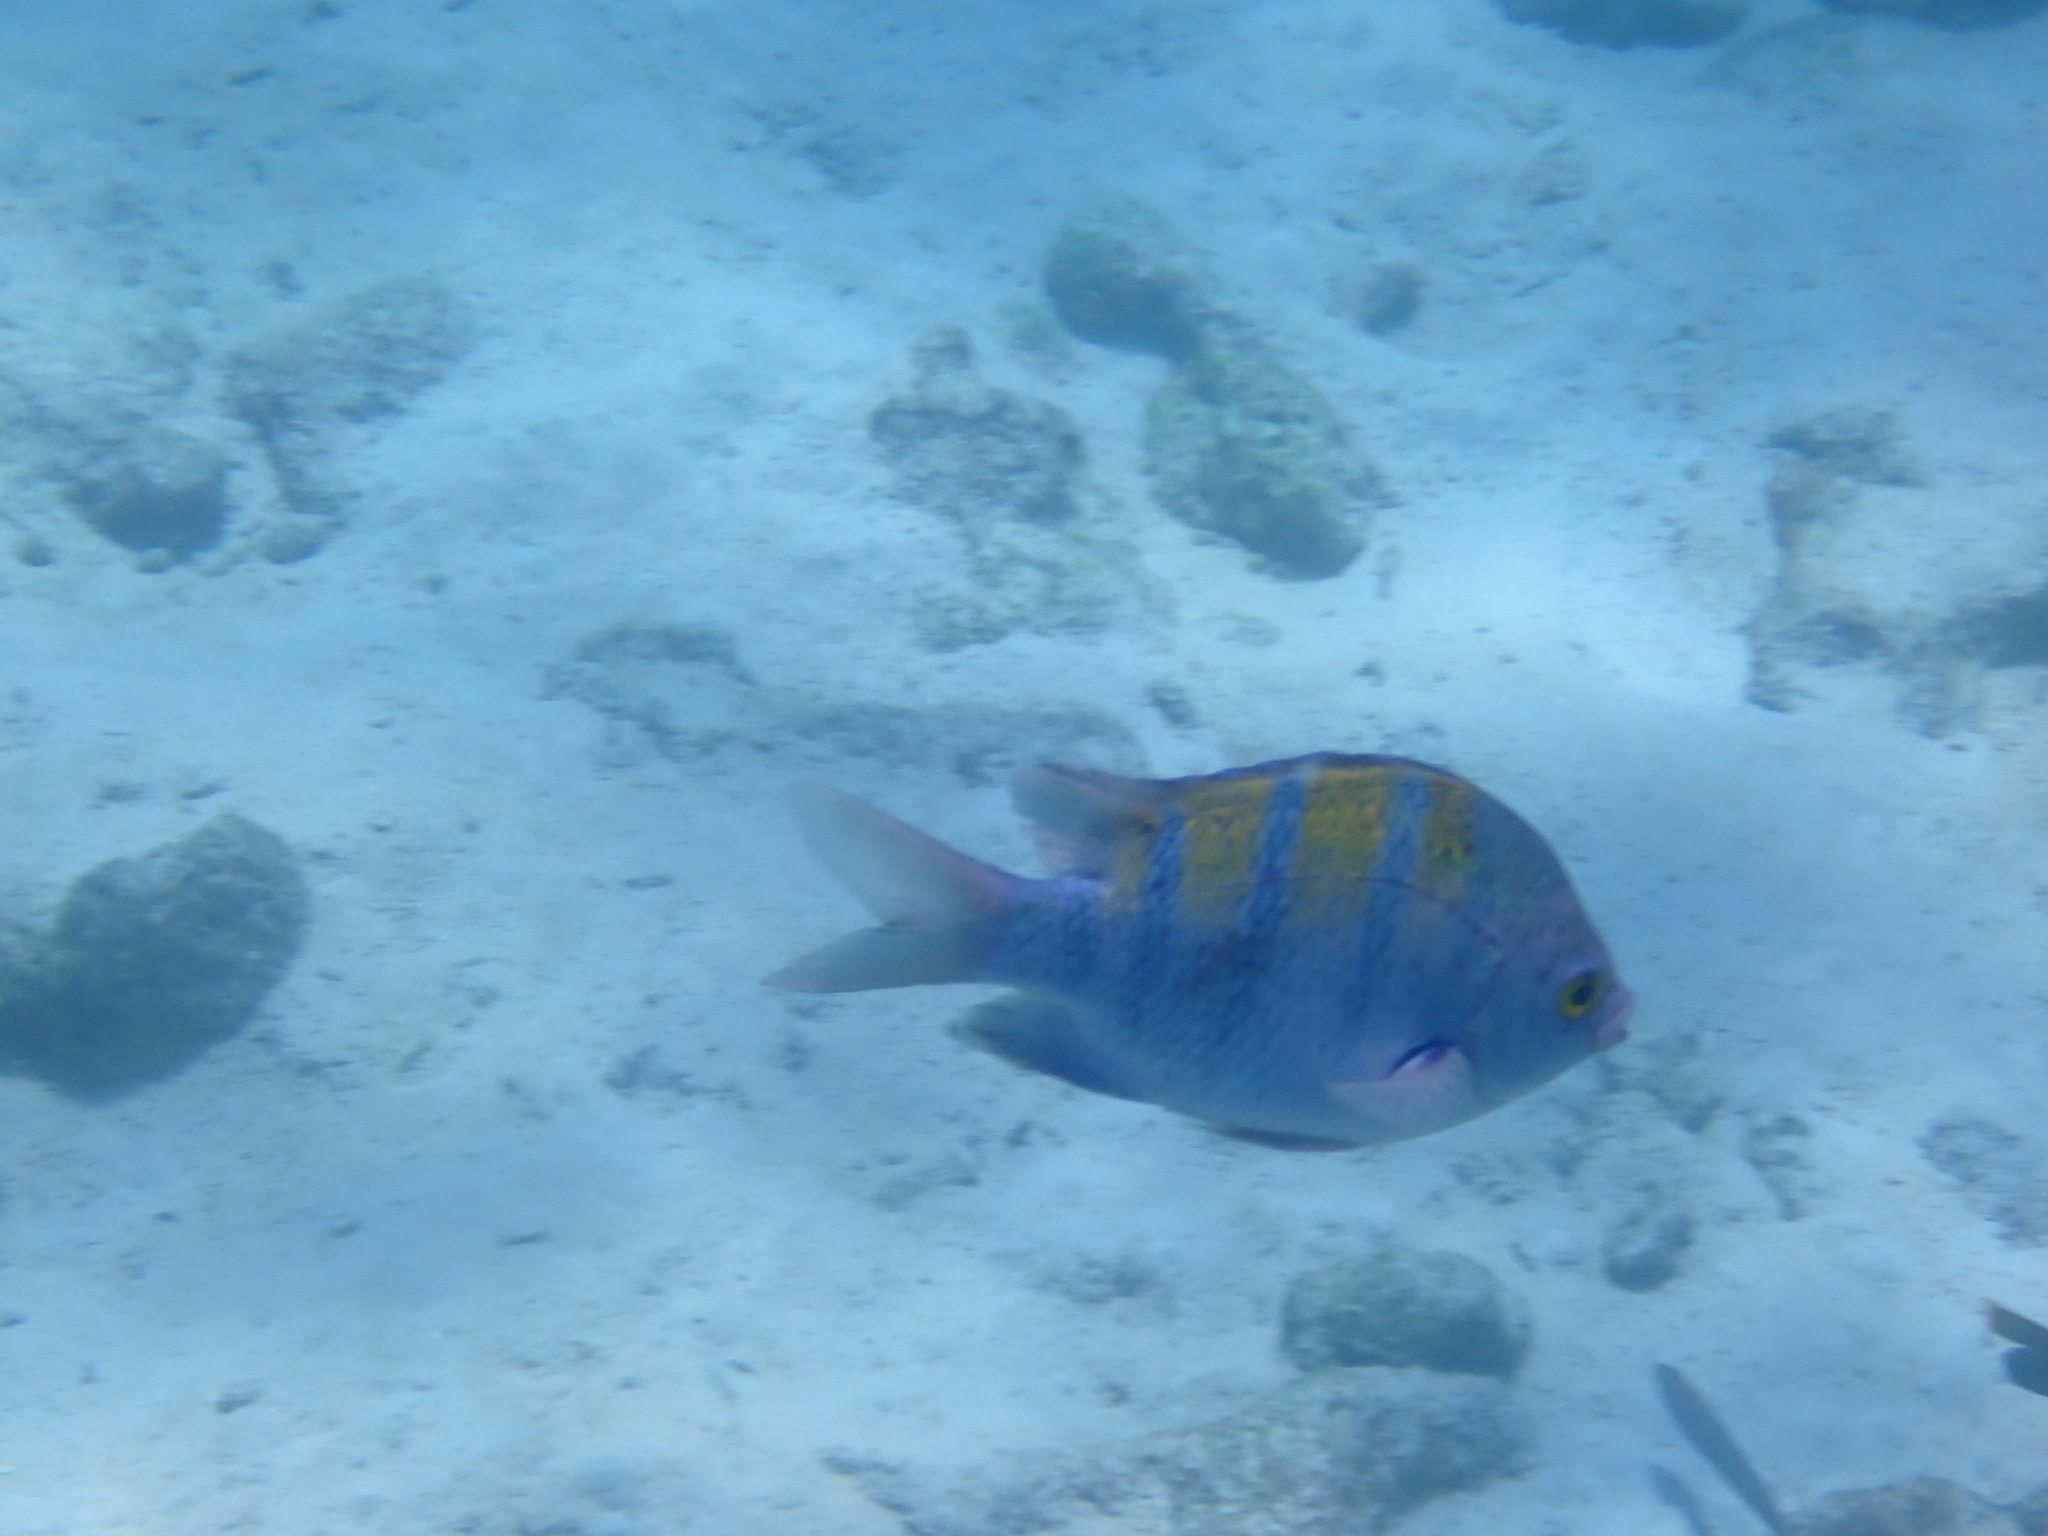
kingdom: Animalia
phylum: Chordata
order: Perciformes
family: Pomacentridae
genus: Abudefduf
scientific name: Abudefduf troschelii
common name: Panamic sergeant major
